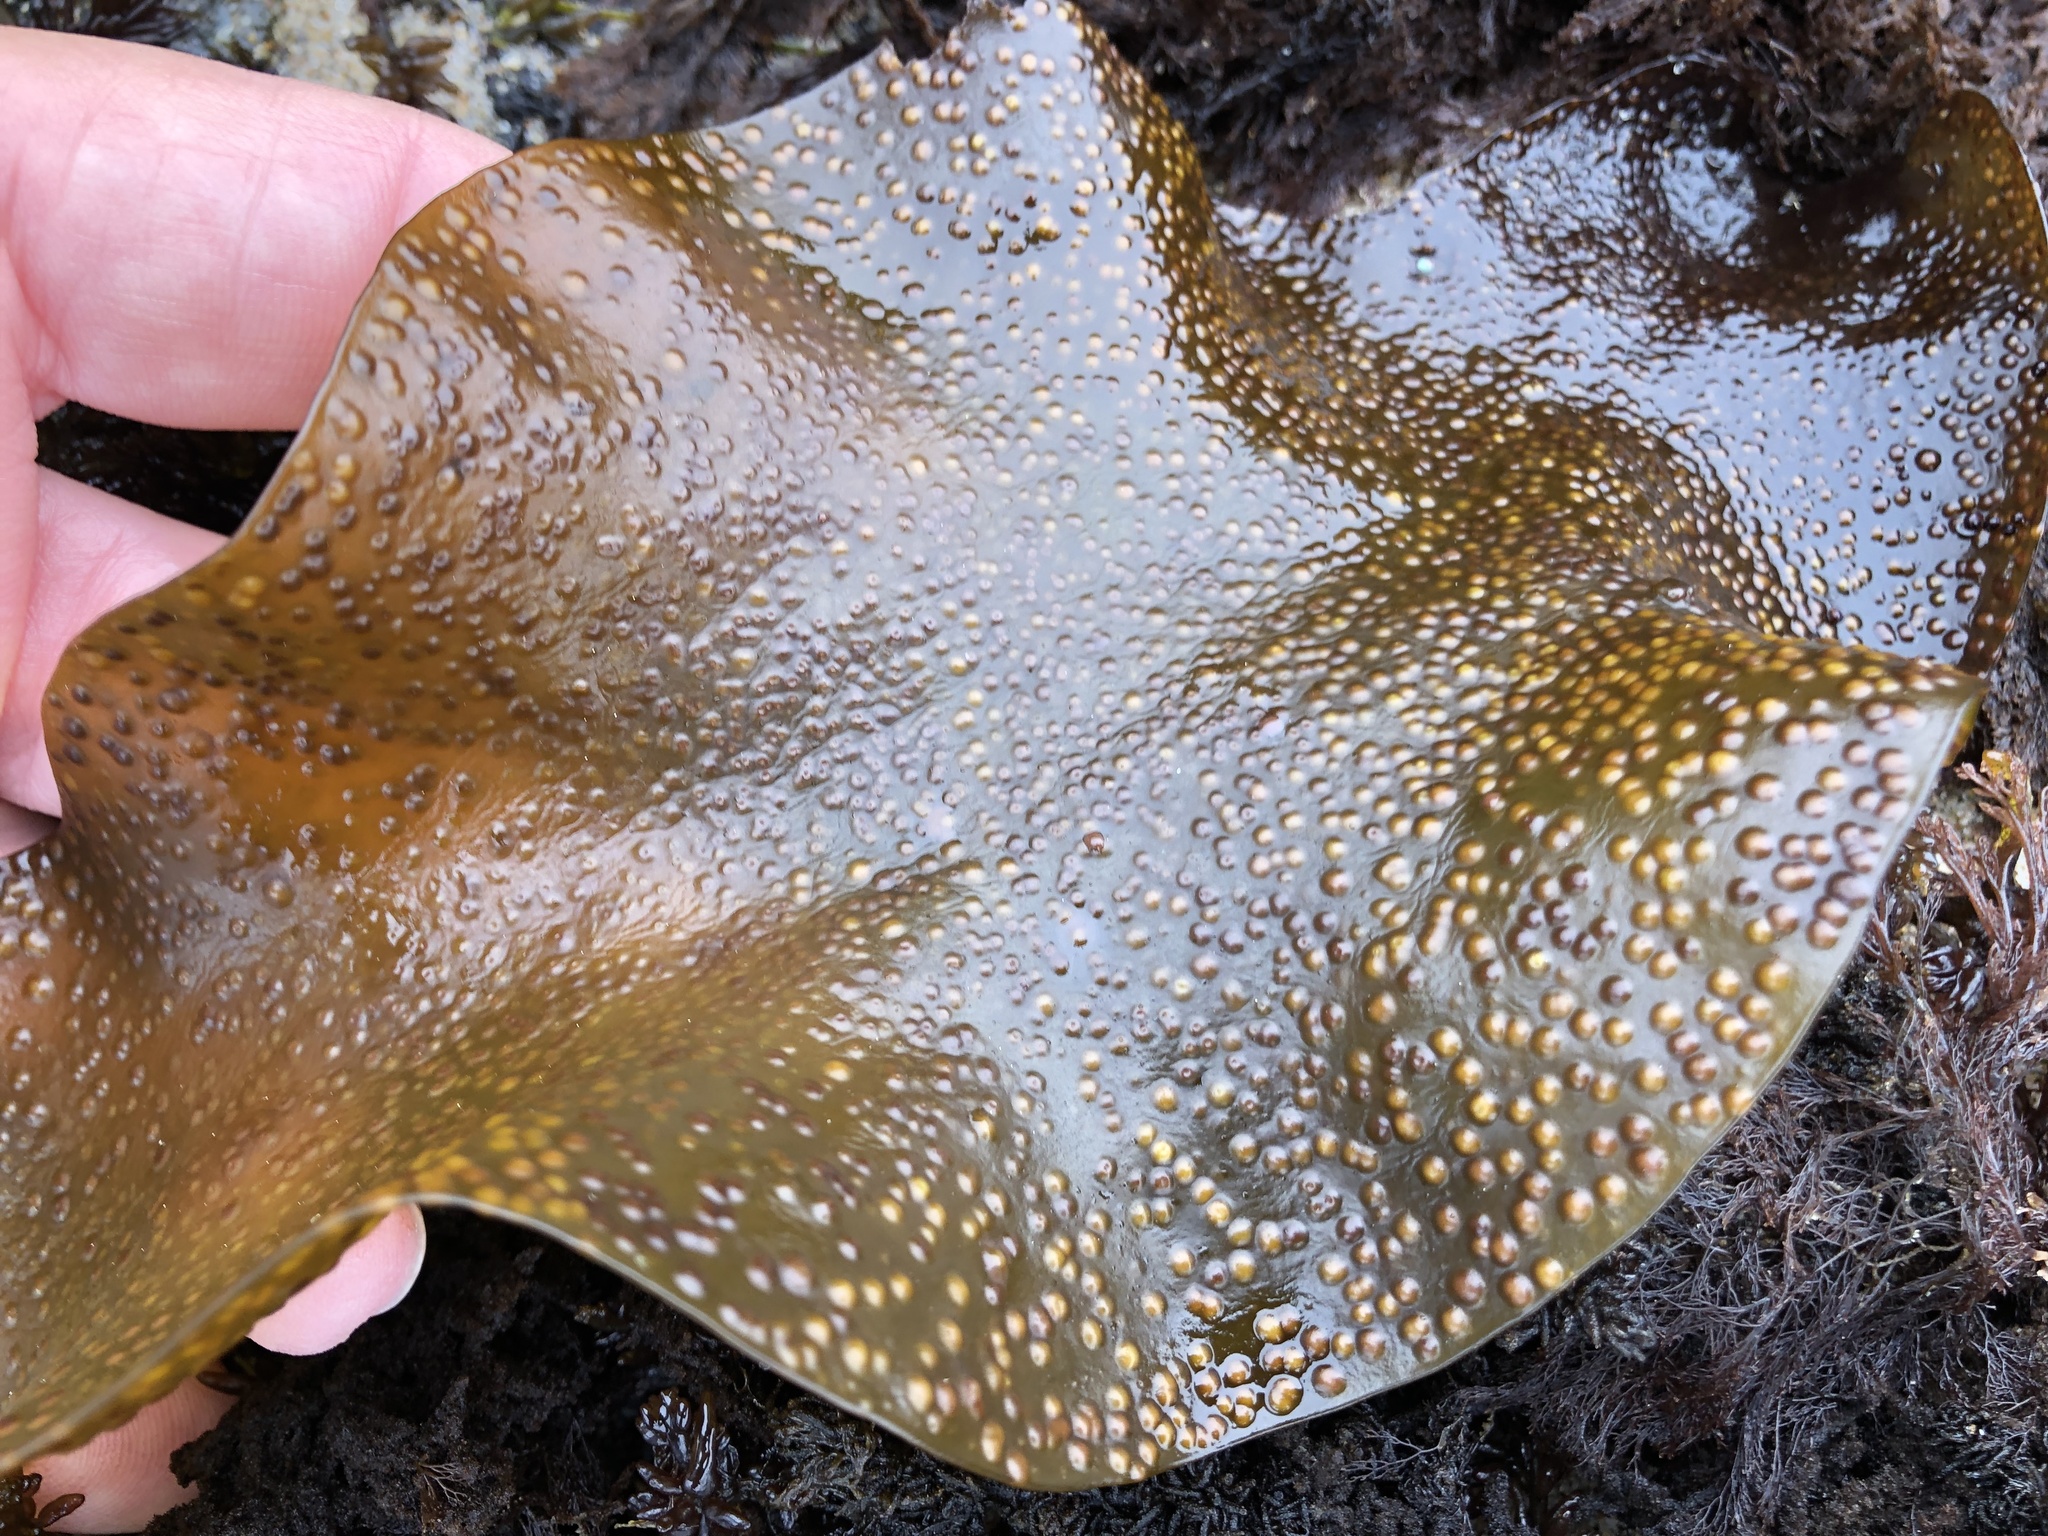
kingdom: Plantae
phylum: Rhodophyta
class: Florideophyceae
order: Gigartinales
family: Gigartinaceae
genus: Mazzaella
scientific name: Mazzaella oregona
